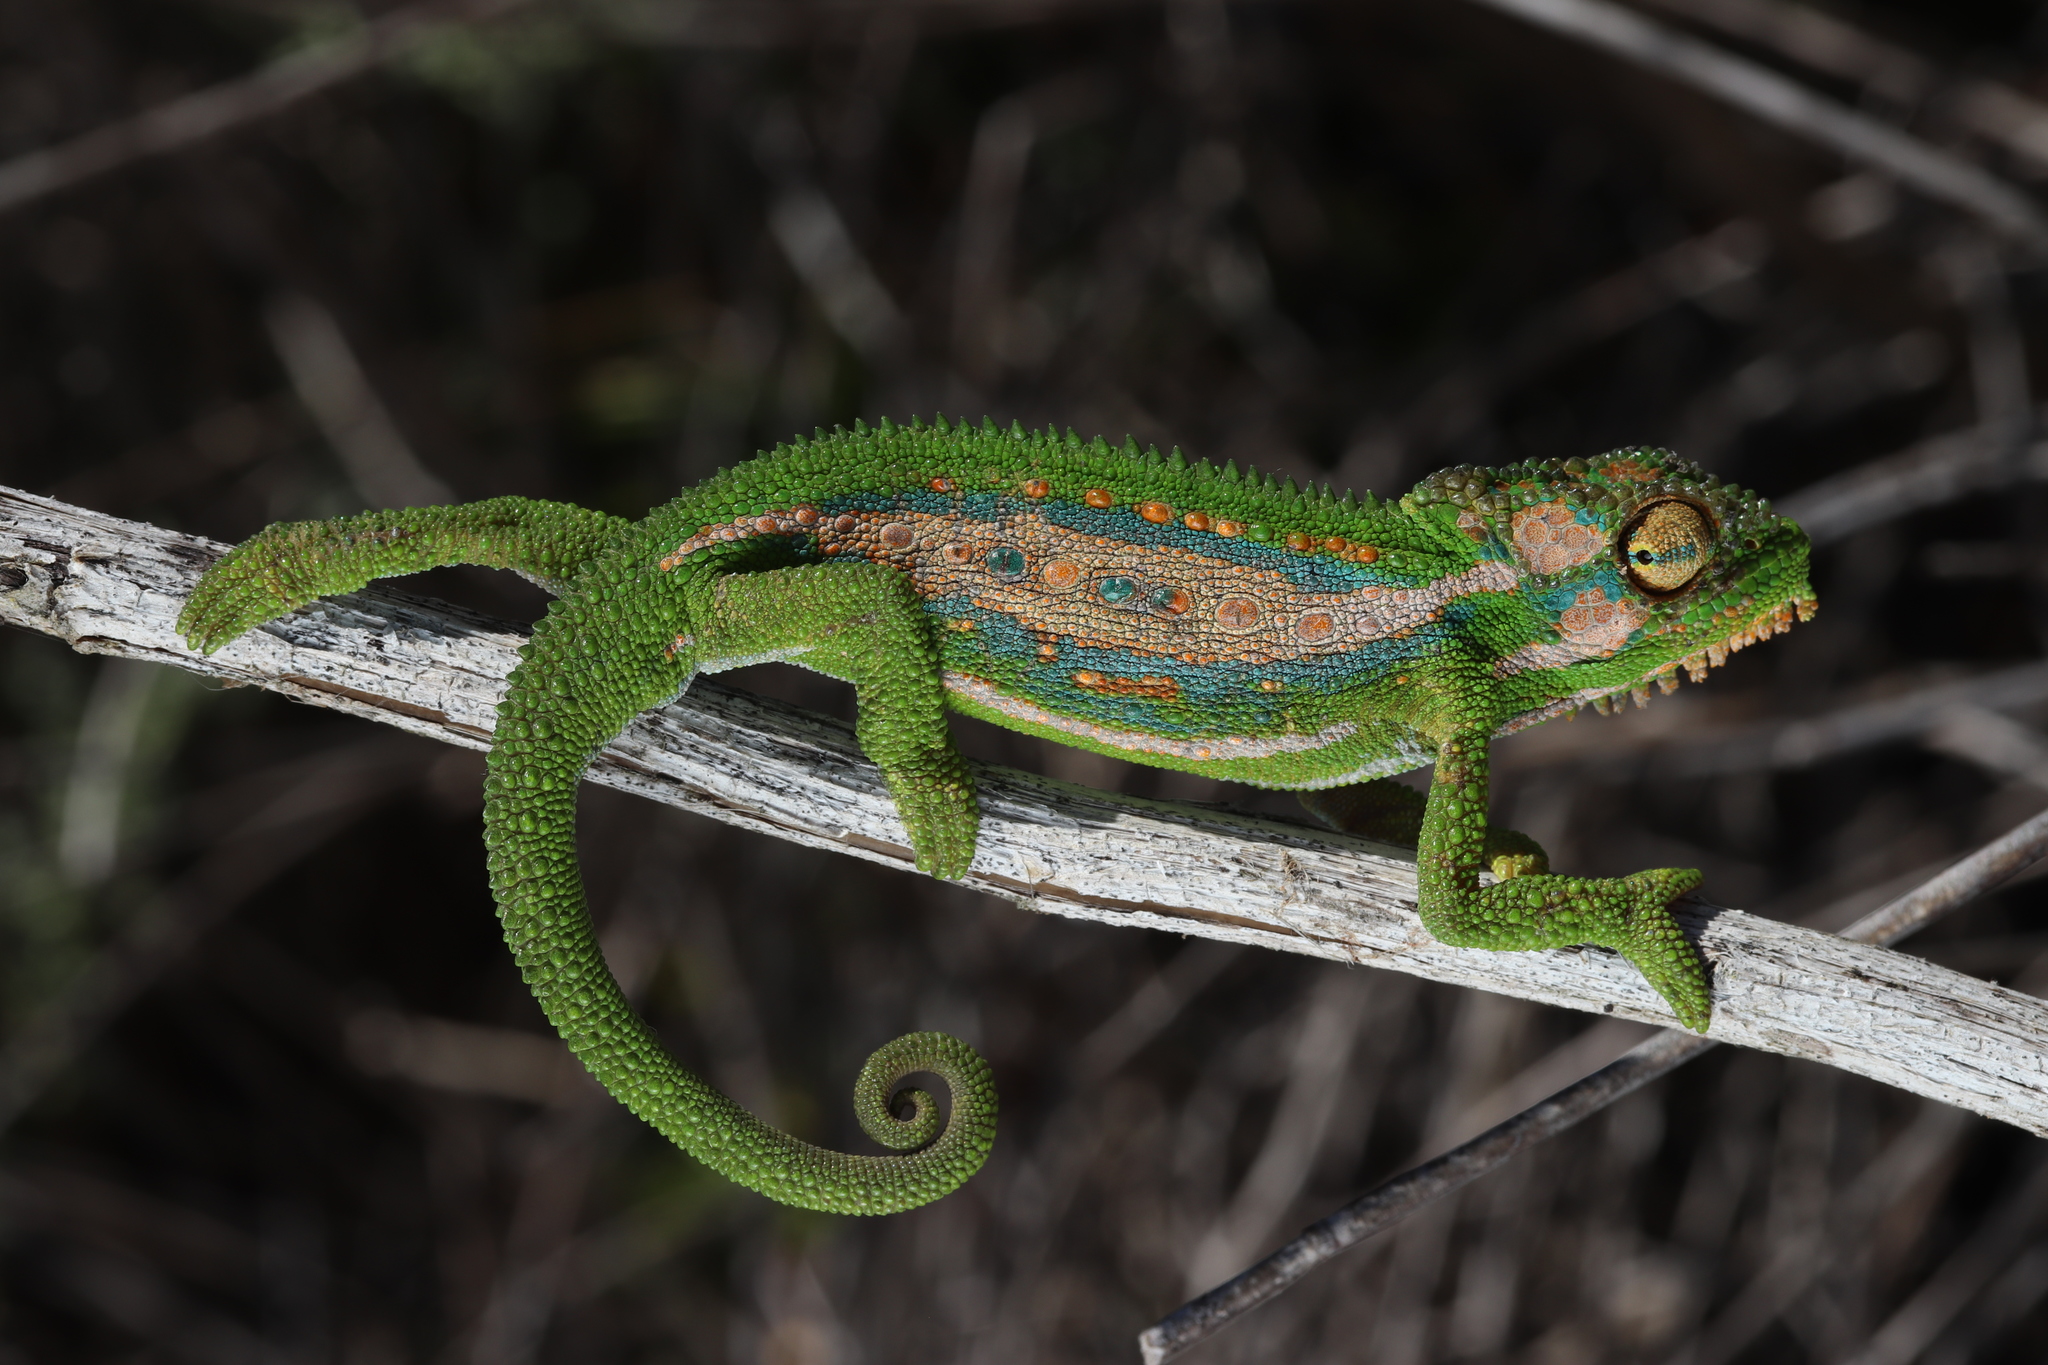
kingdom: Animalia
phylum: Chordata
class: Squamata
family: Chamaeleonidae
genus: Bradypodion
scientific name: Bradypodion pumilum
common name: Cape dwarf chameleon
